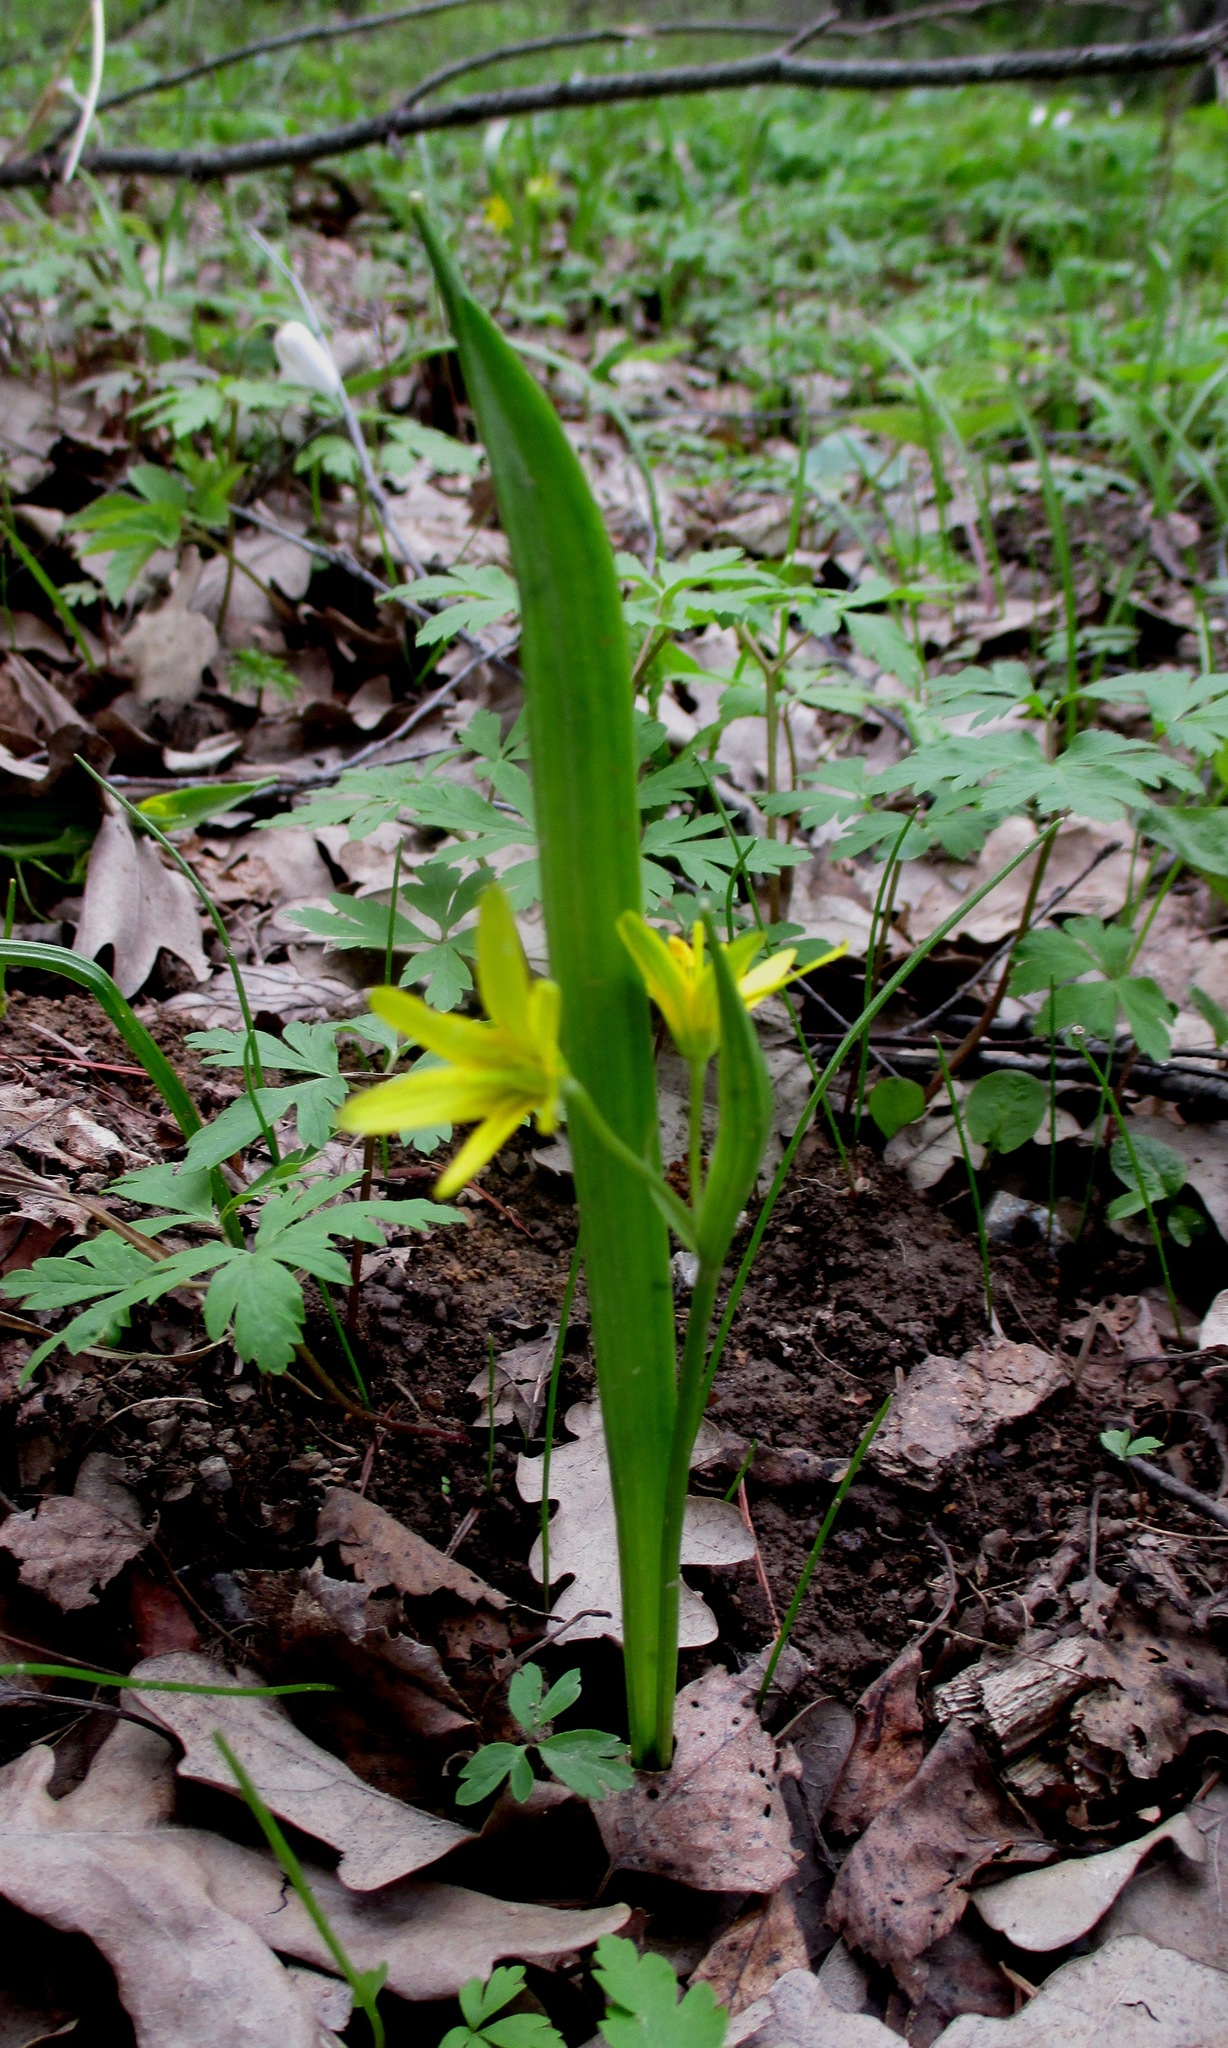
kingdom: Plantae
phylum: Tracheophyta
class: Liliopsida
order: Liliales
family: Liliaceae
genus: Gagea
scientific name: Gagea lutea
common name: Yellow star-of-bethlehem
